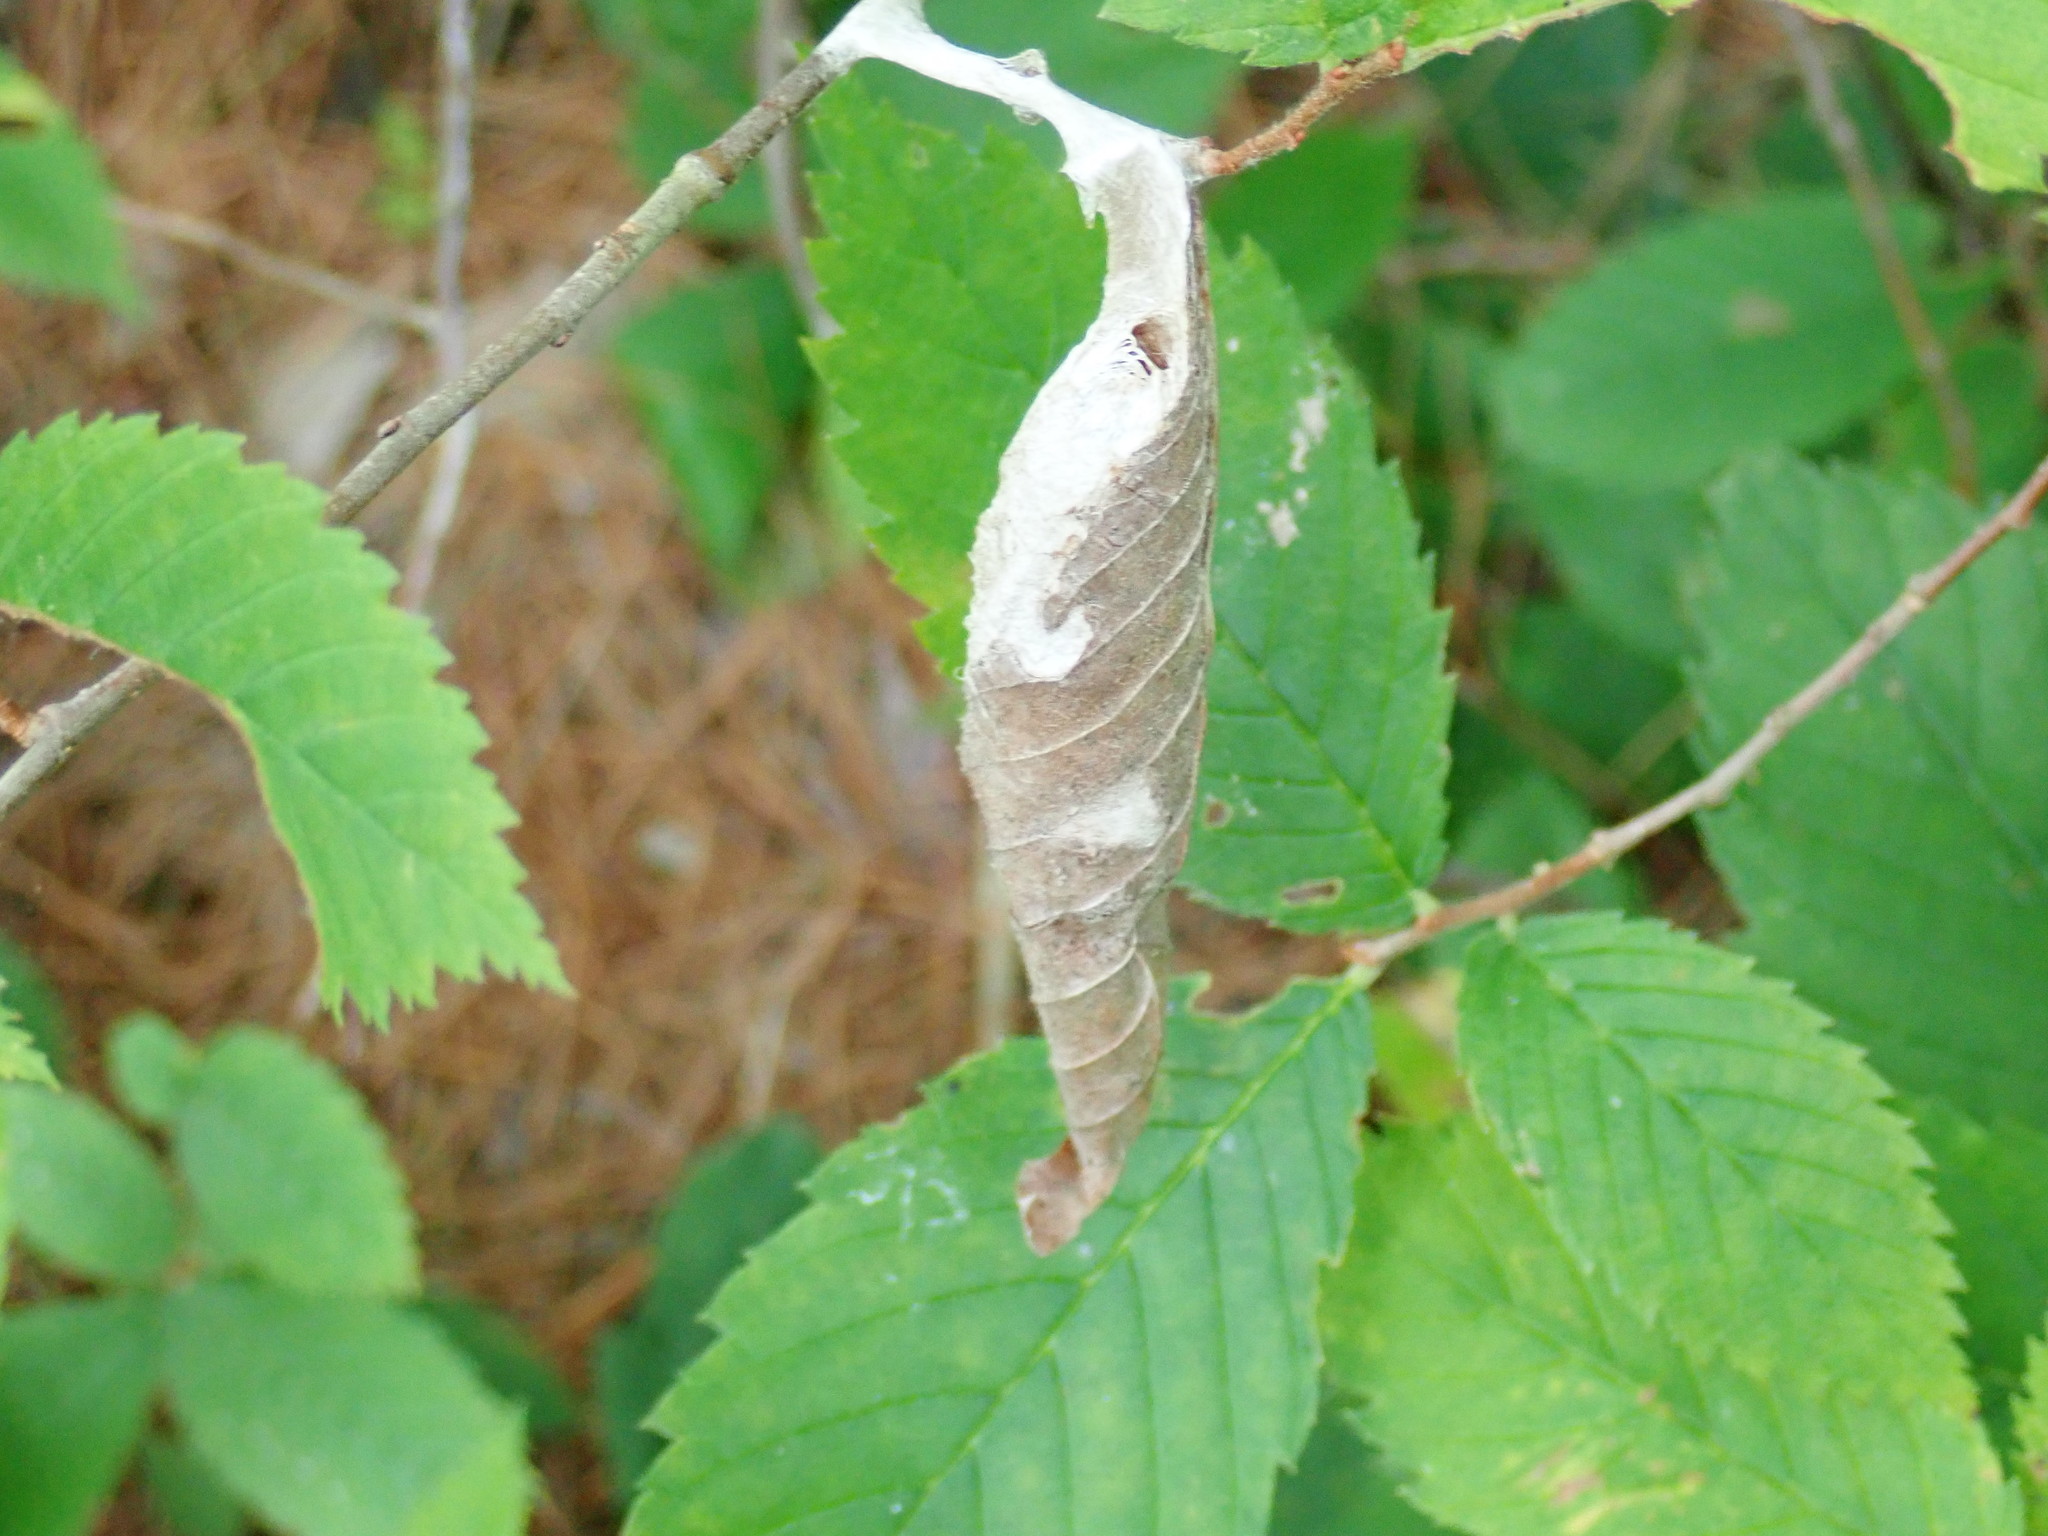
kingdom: Animalia
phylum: Arthropoda
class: Insecta
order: Lepidoptera
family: Saturniidae
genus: Callosamia
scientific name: Callosamia promethea
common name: Promethea silkmoth
